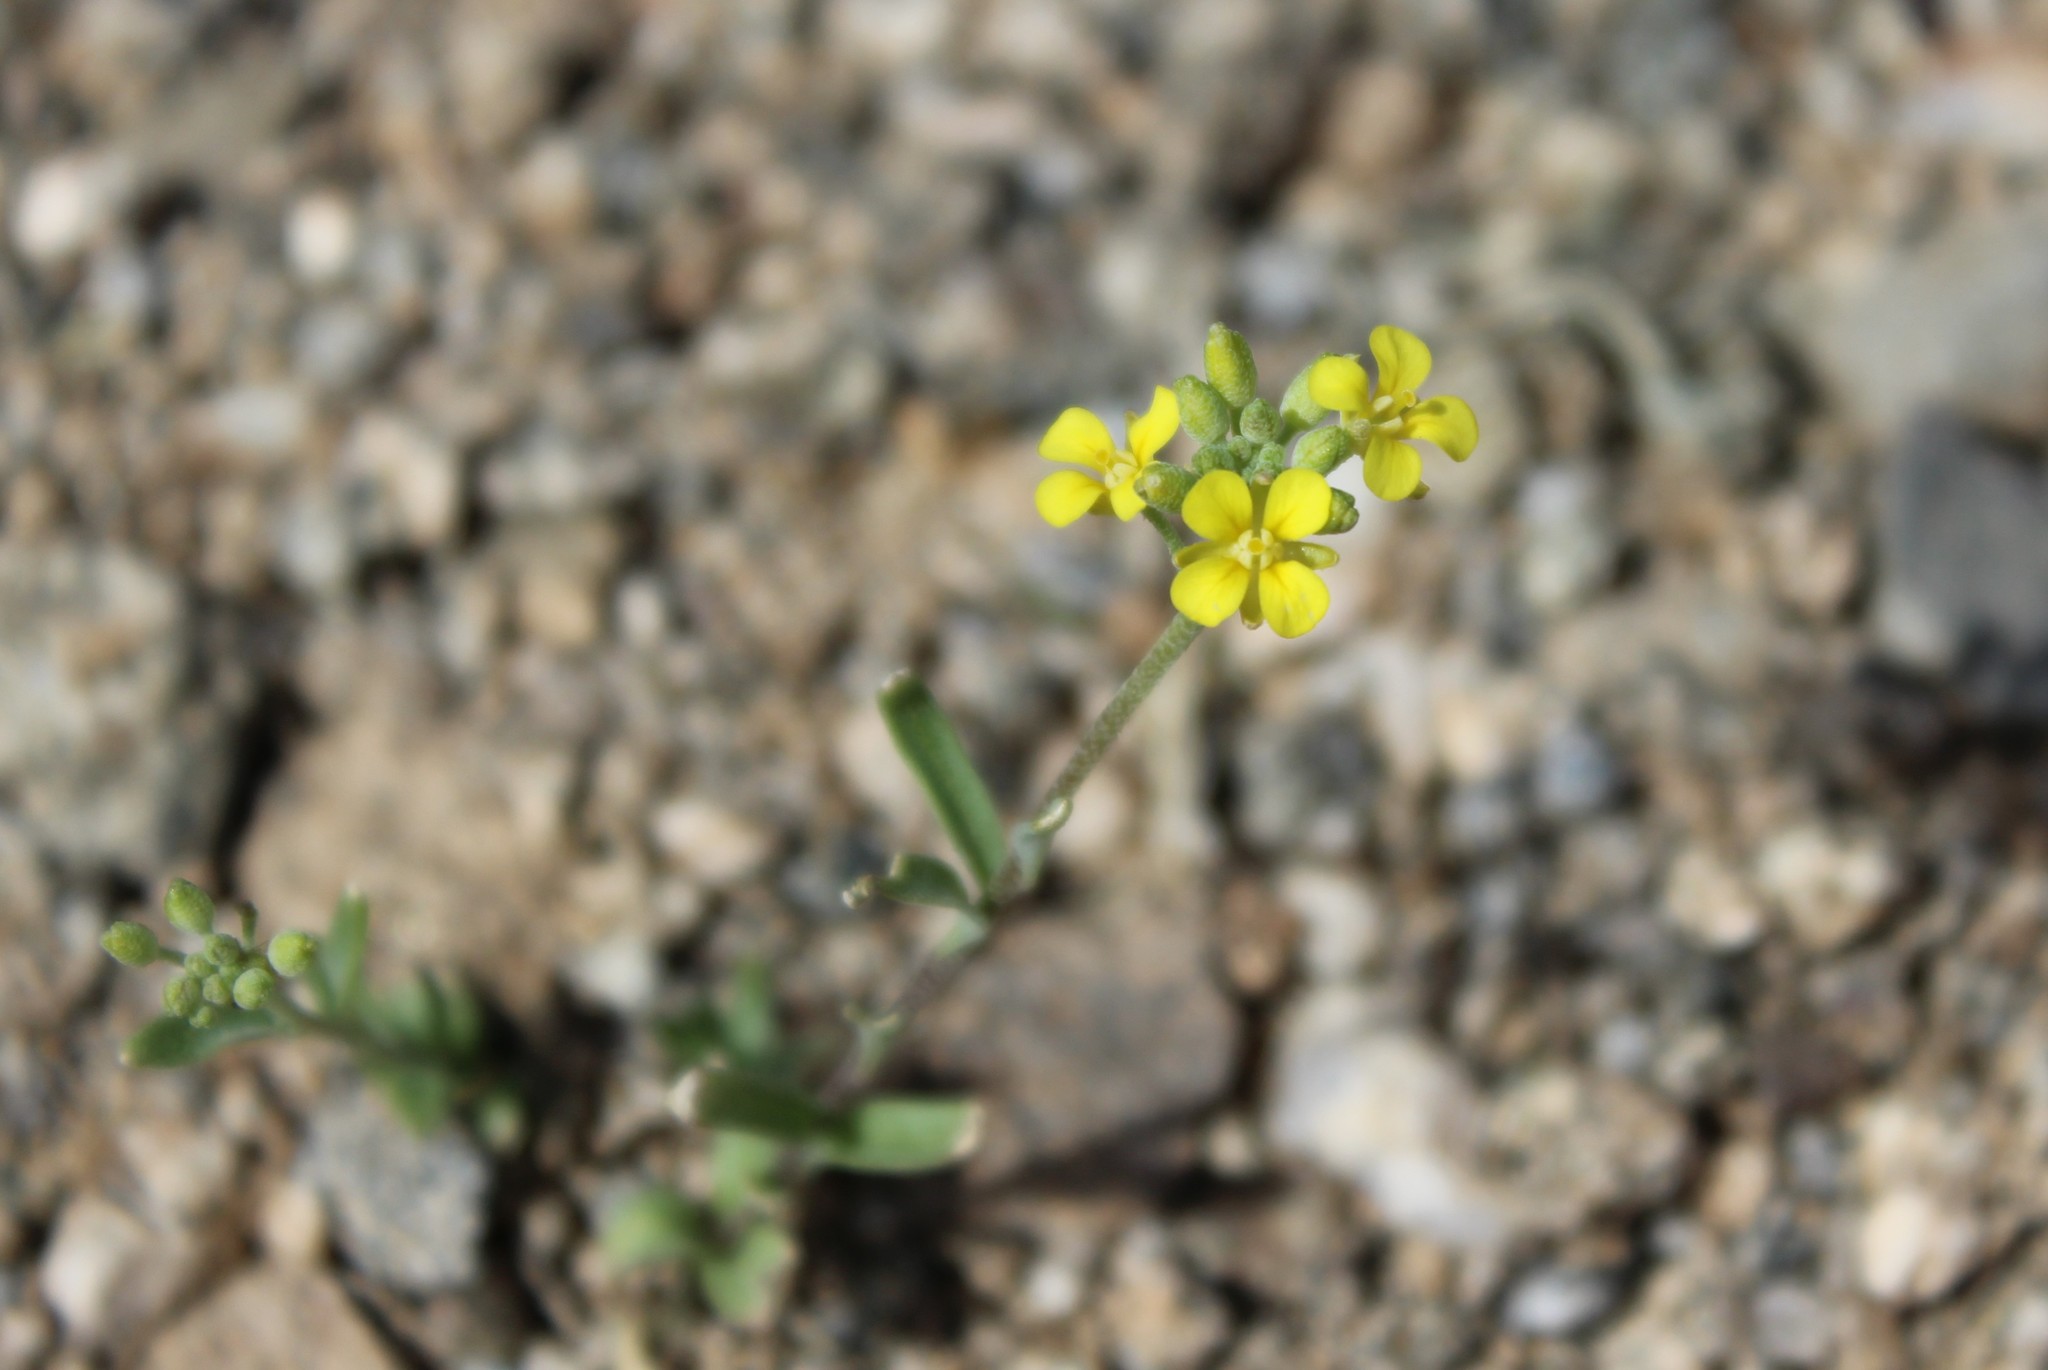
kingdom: Plantae
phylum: Tracheophyta
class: Magnoliopsida
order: Brassicales
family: Brassicaceae
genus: Physaria
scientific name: Physaria
